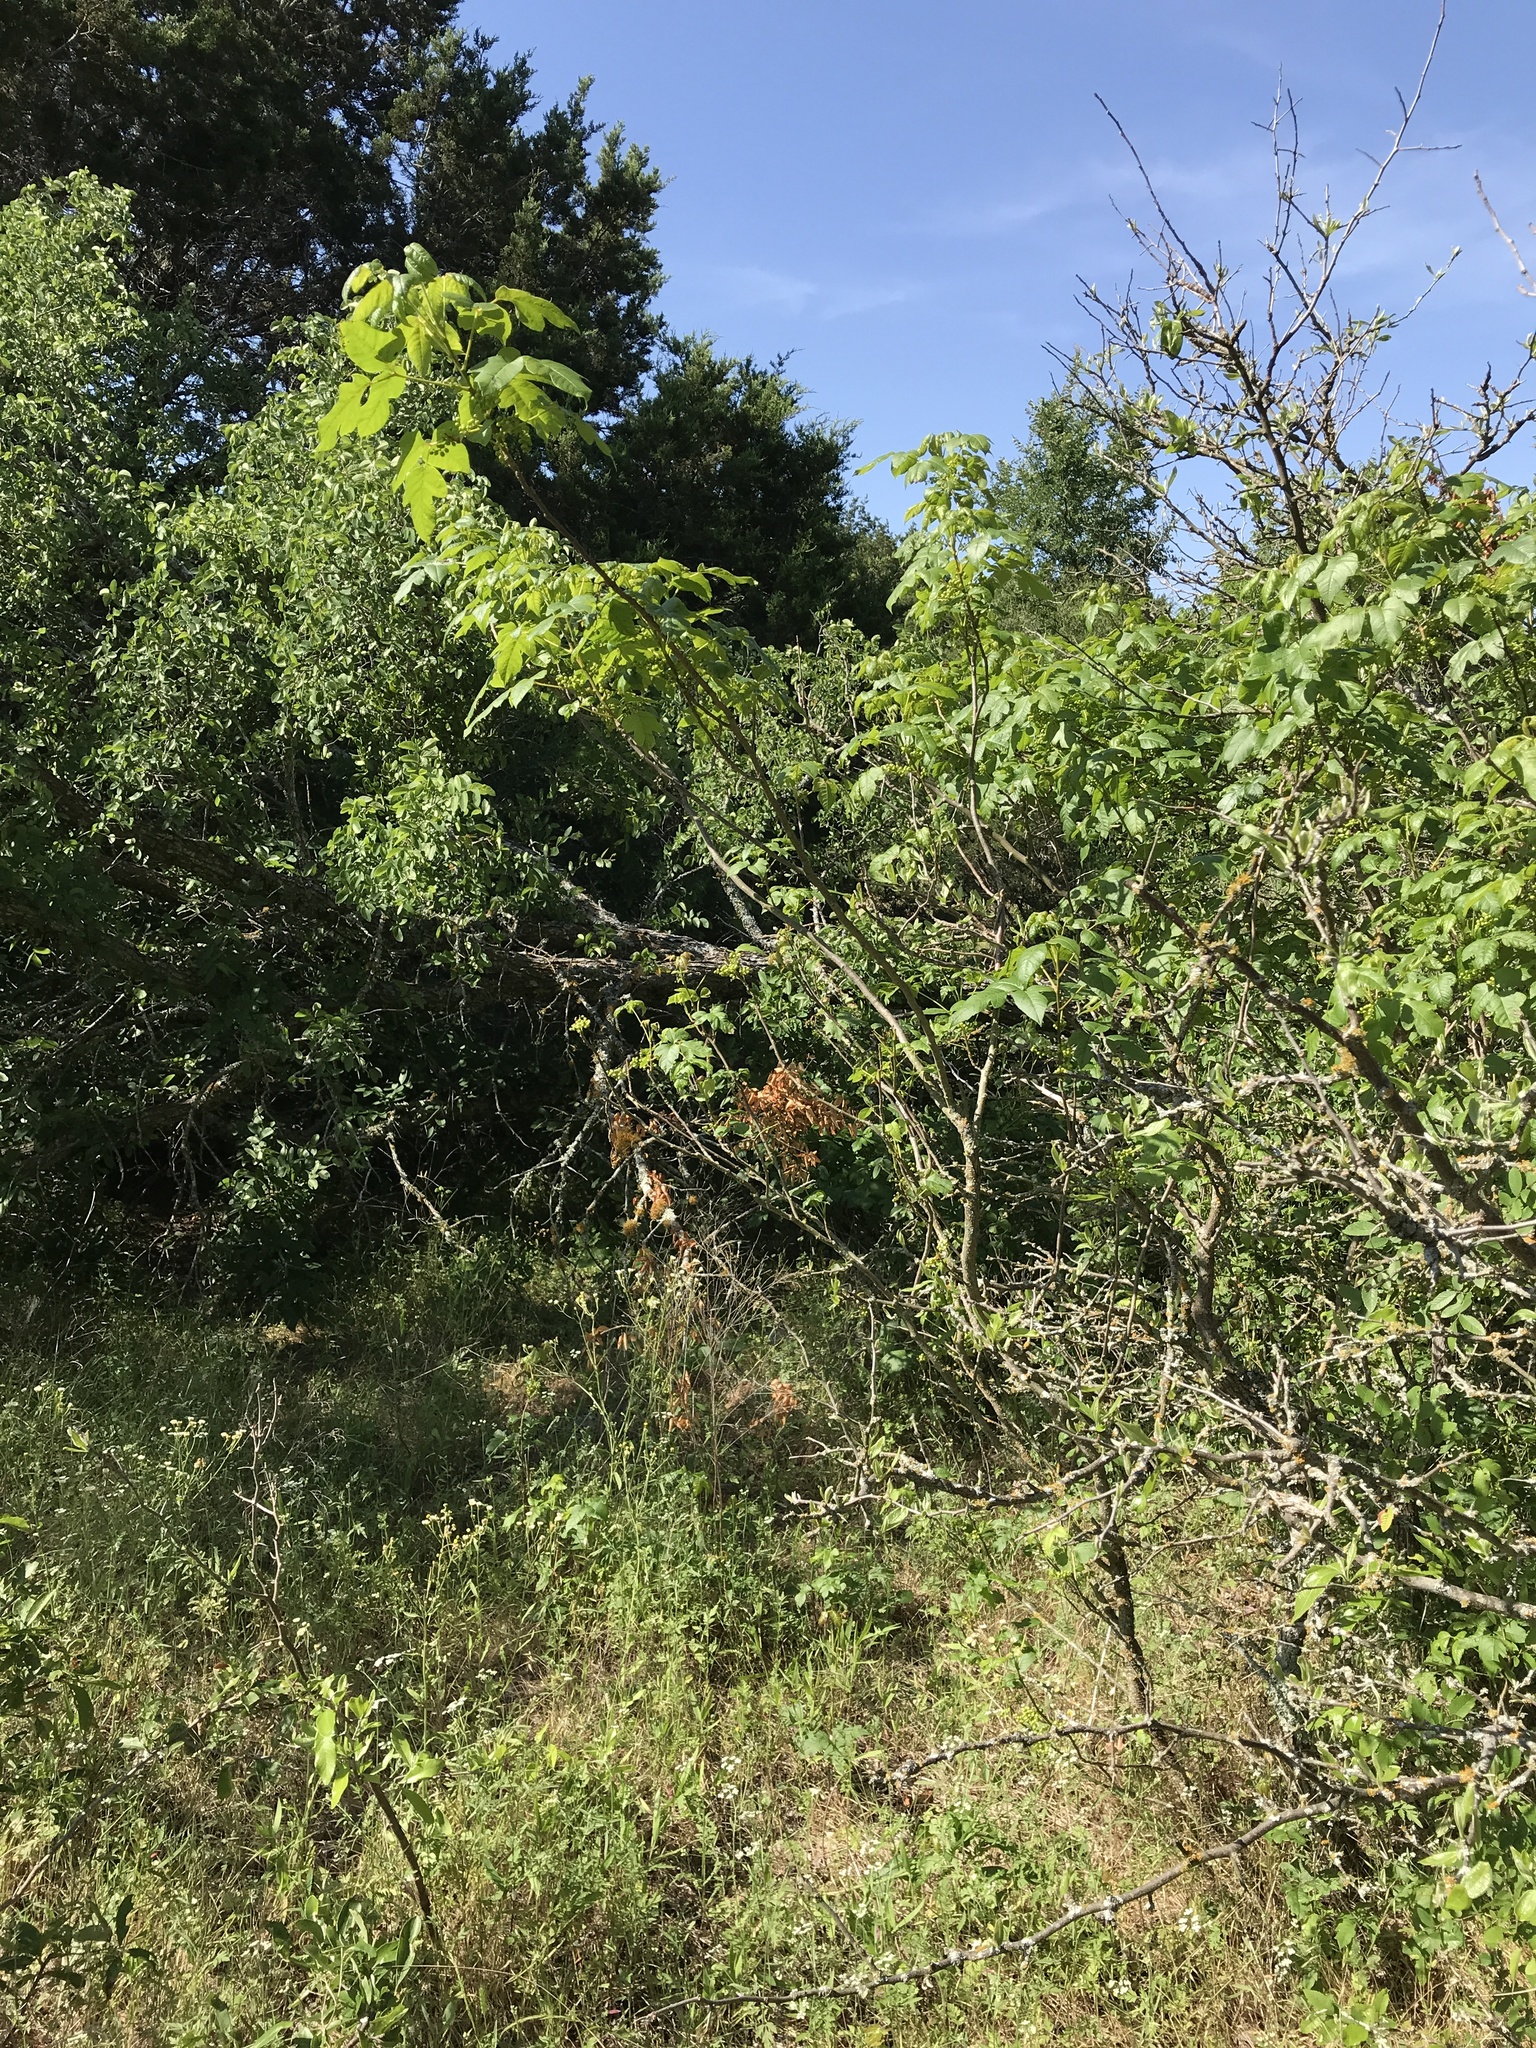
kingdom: Plantae
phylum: Tracheophyta
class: Magnoliopsida
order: Sapindales
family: Anacardiaceae
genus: Toxicodendron
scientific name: Toxicodendron radicans
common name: Poison ivy
